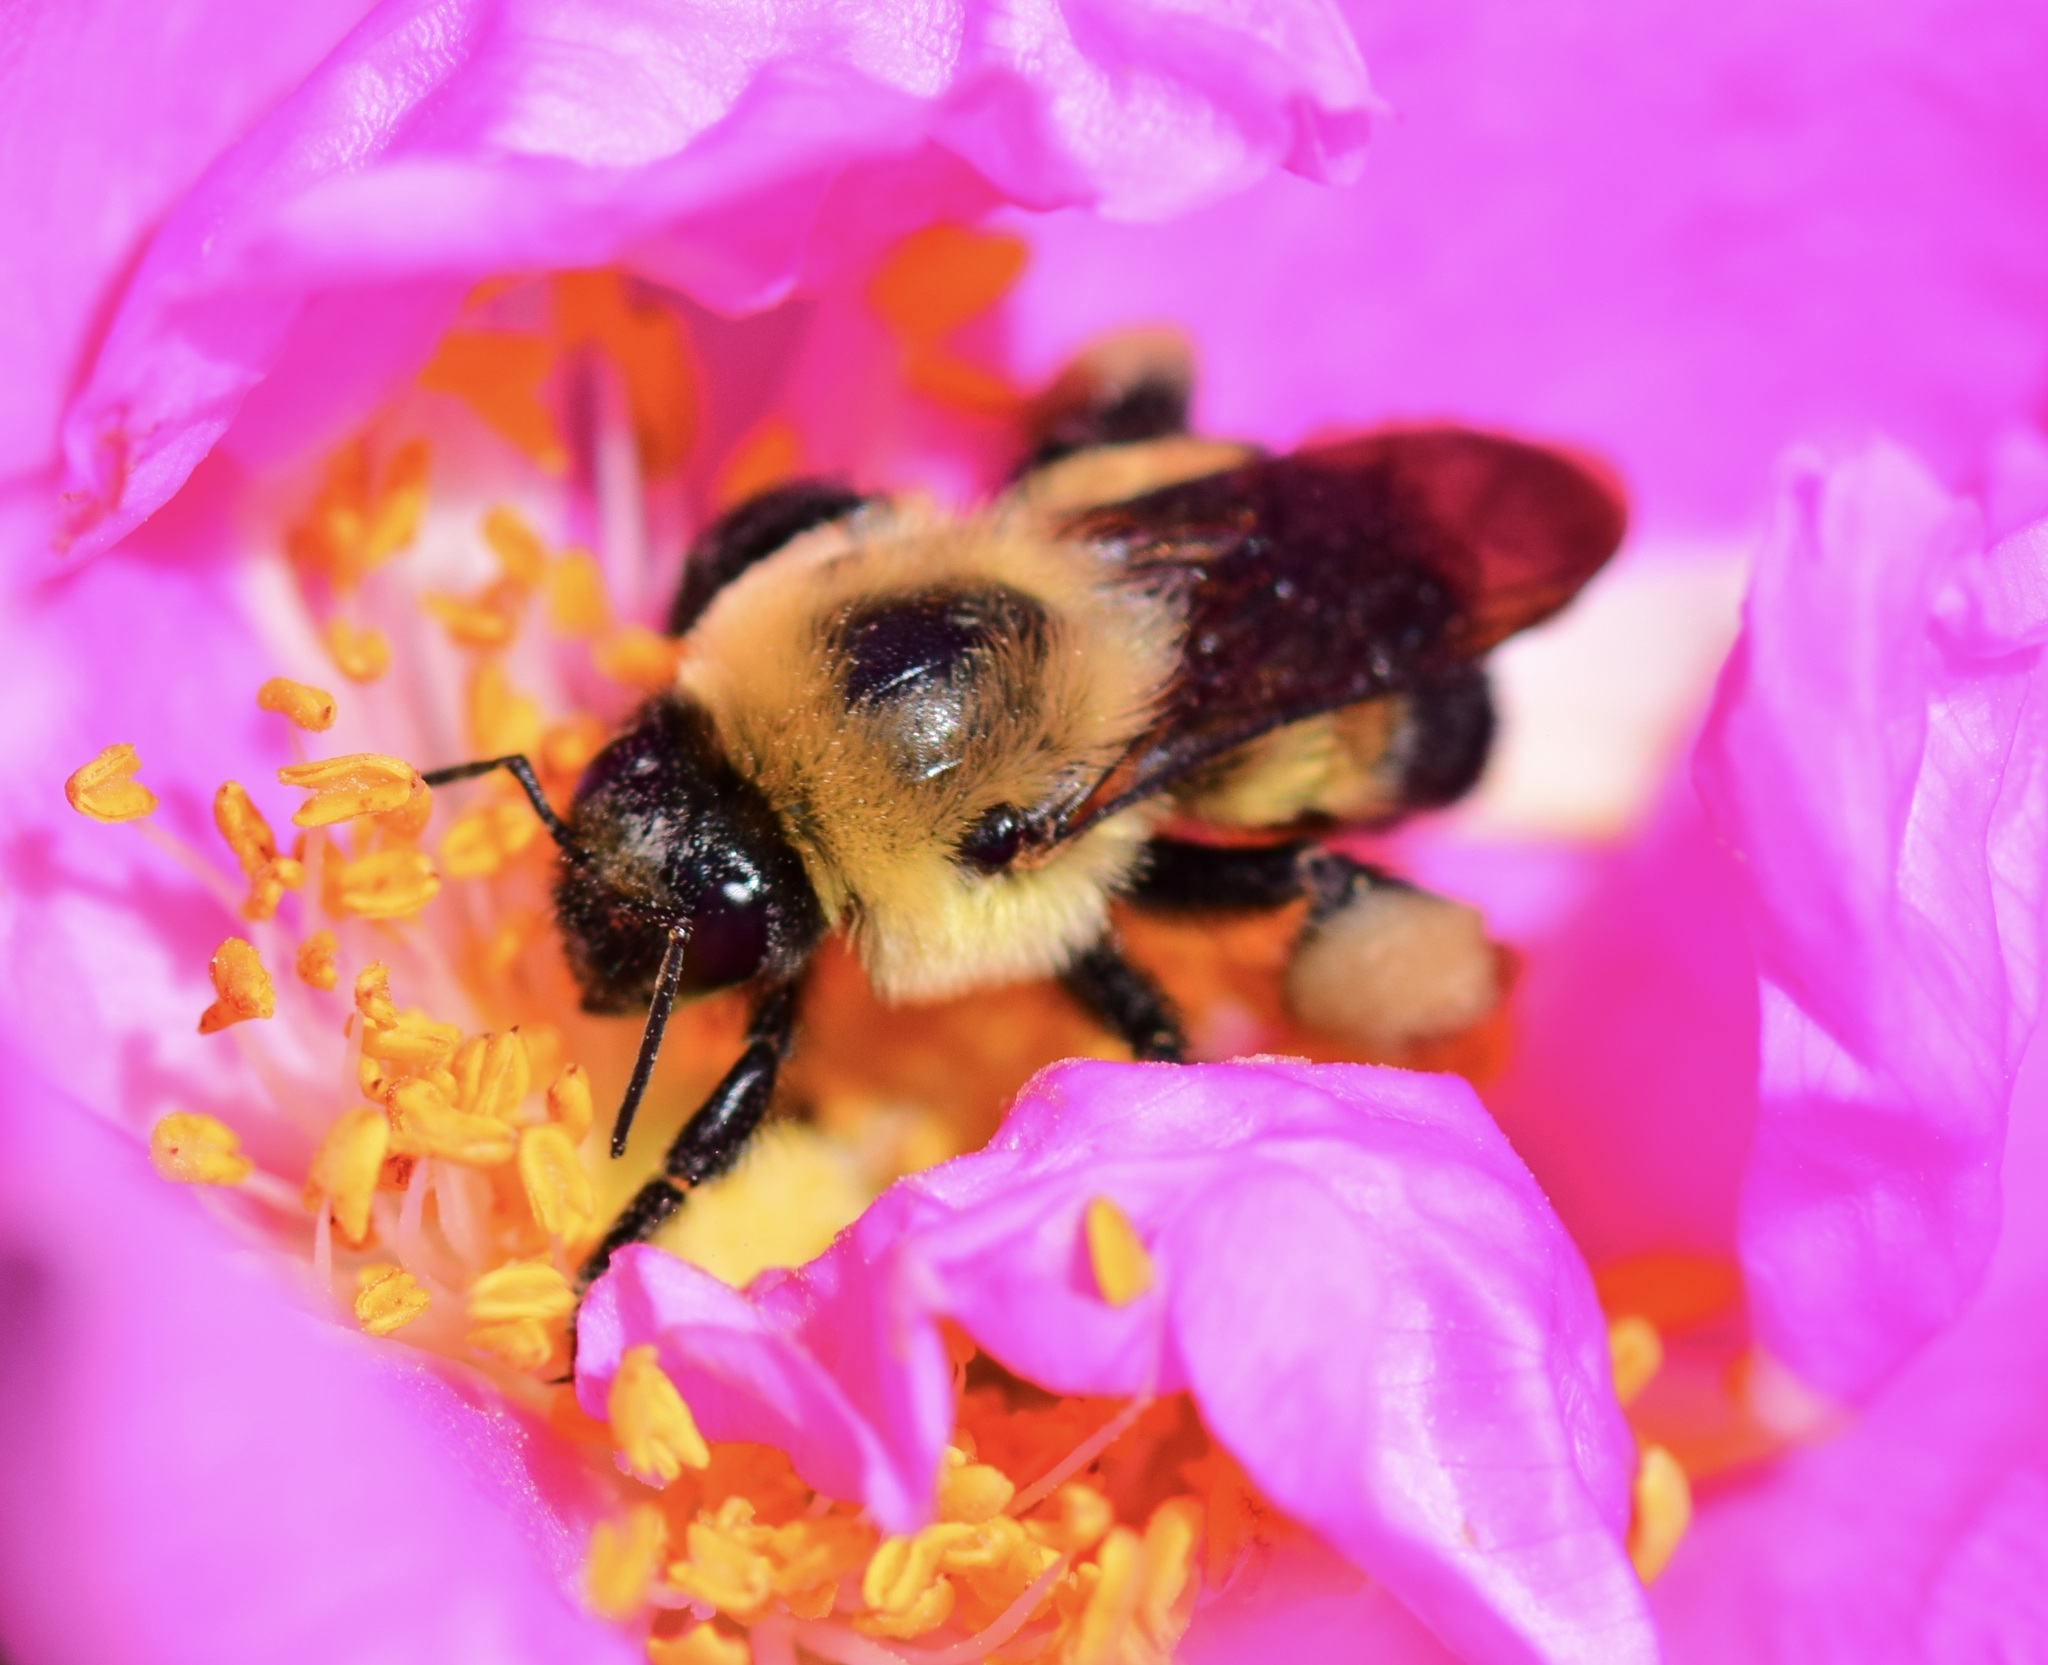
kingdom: Animalia
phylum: Arthropoda
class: Insecta
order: Hymenoptera
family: Apidae
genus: Bombus
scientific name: Bombus griseocollis
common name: Brown-belted bumble bee
